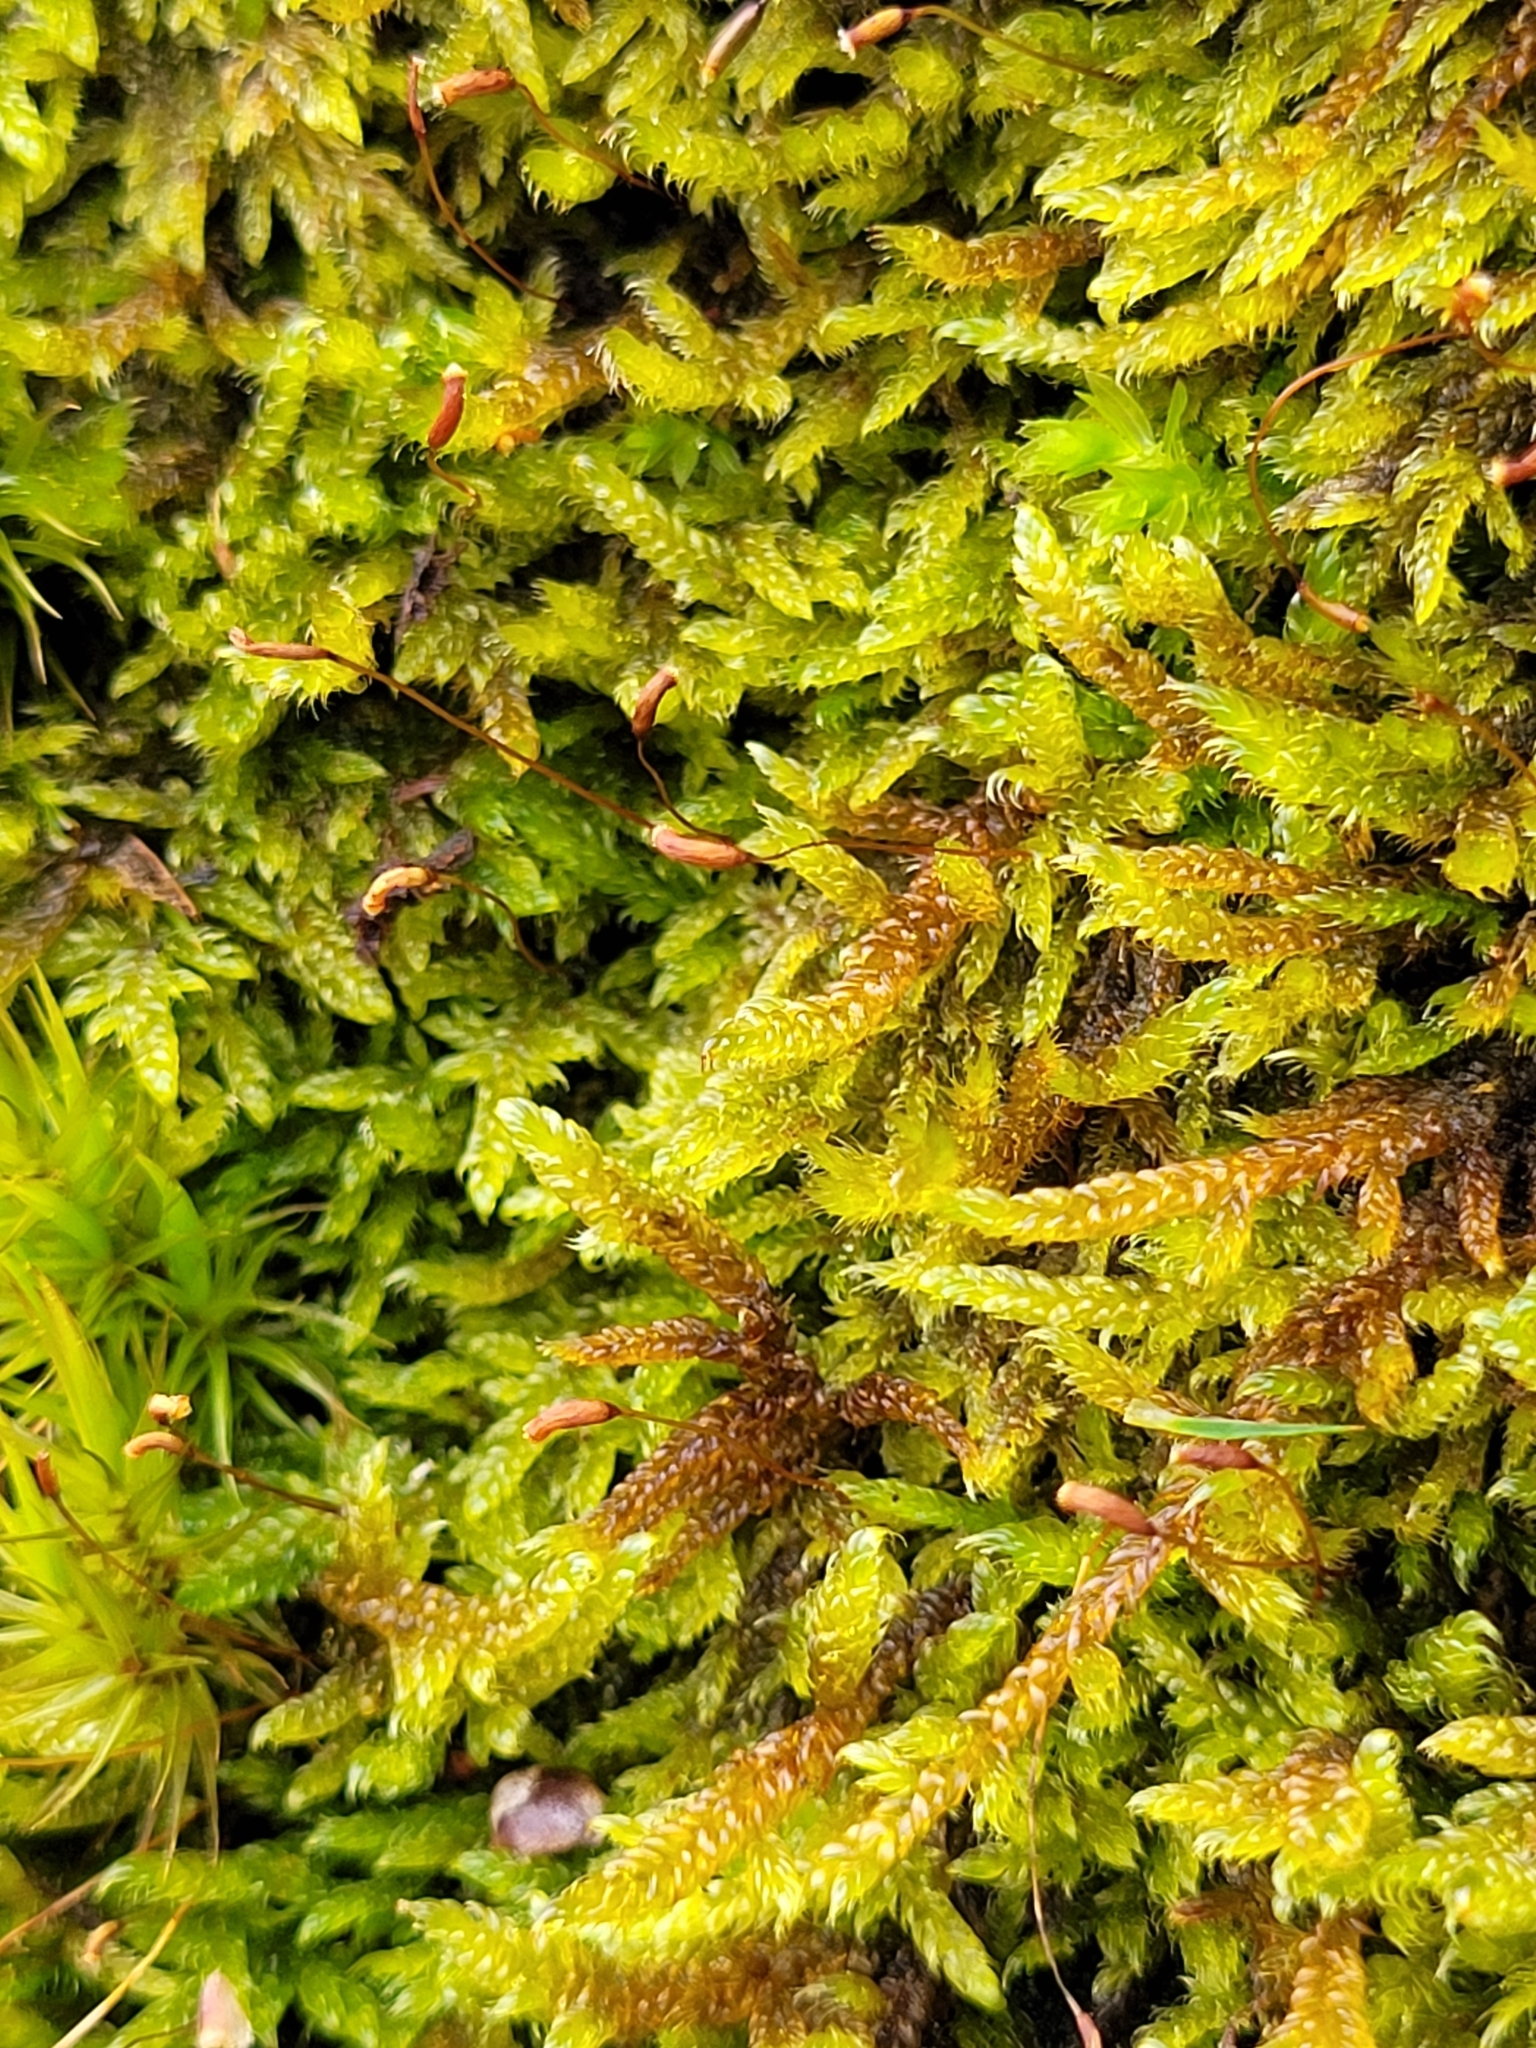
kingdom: Plantae
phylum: Bryophyta
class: Bryopsida
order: Hypnales
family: Hypnaceae
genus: Hypnum
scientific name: Hypnum cupressiforme
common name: Cypress-leaved plait-moss
